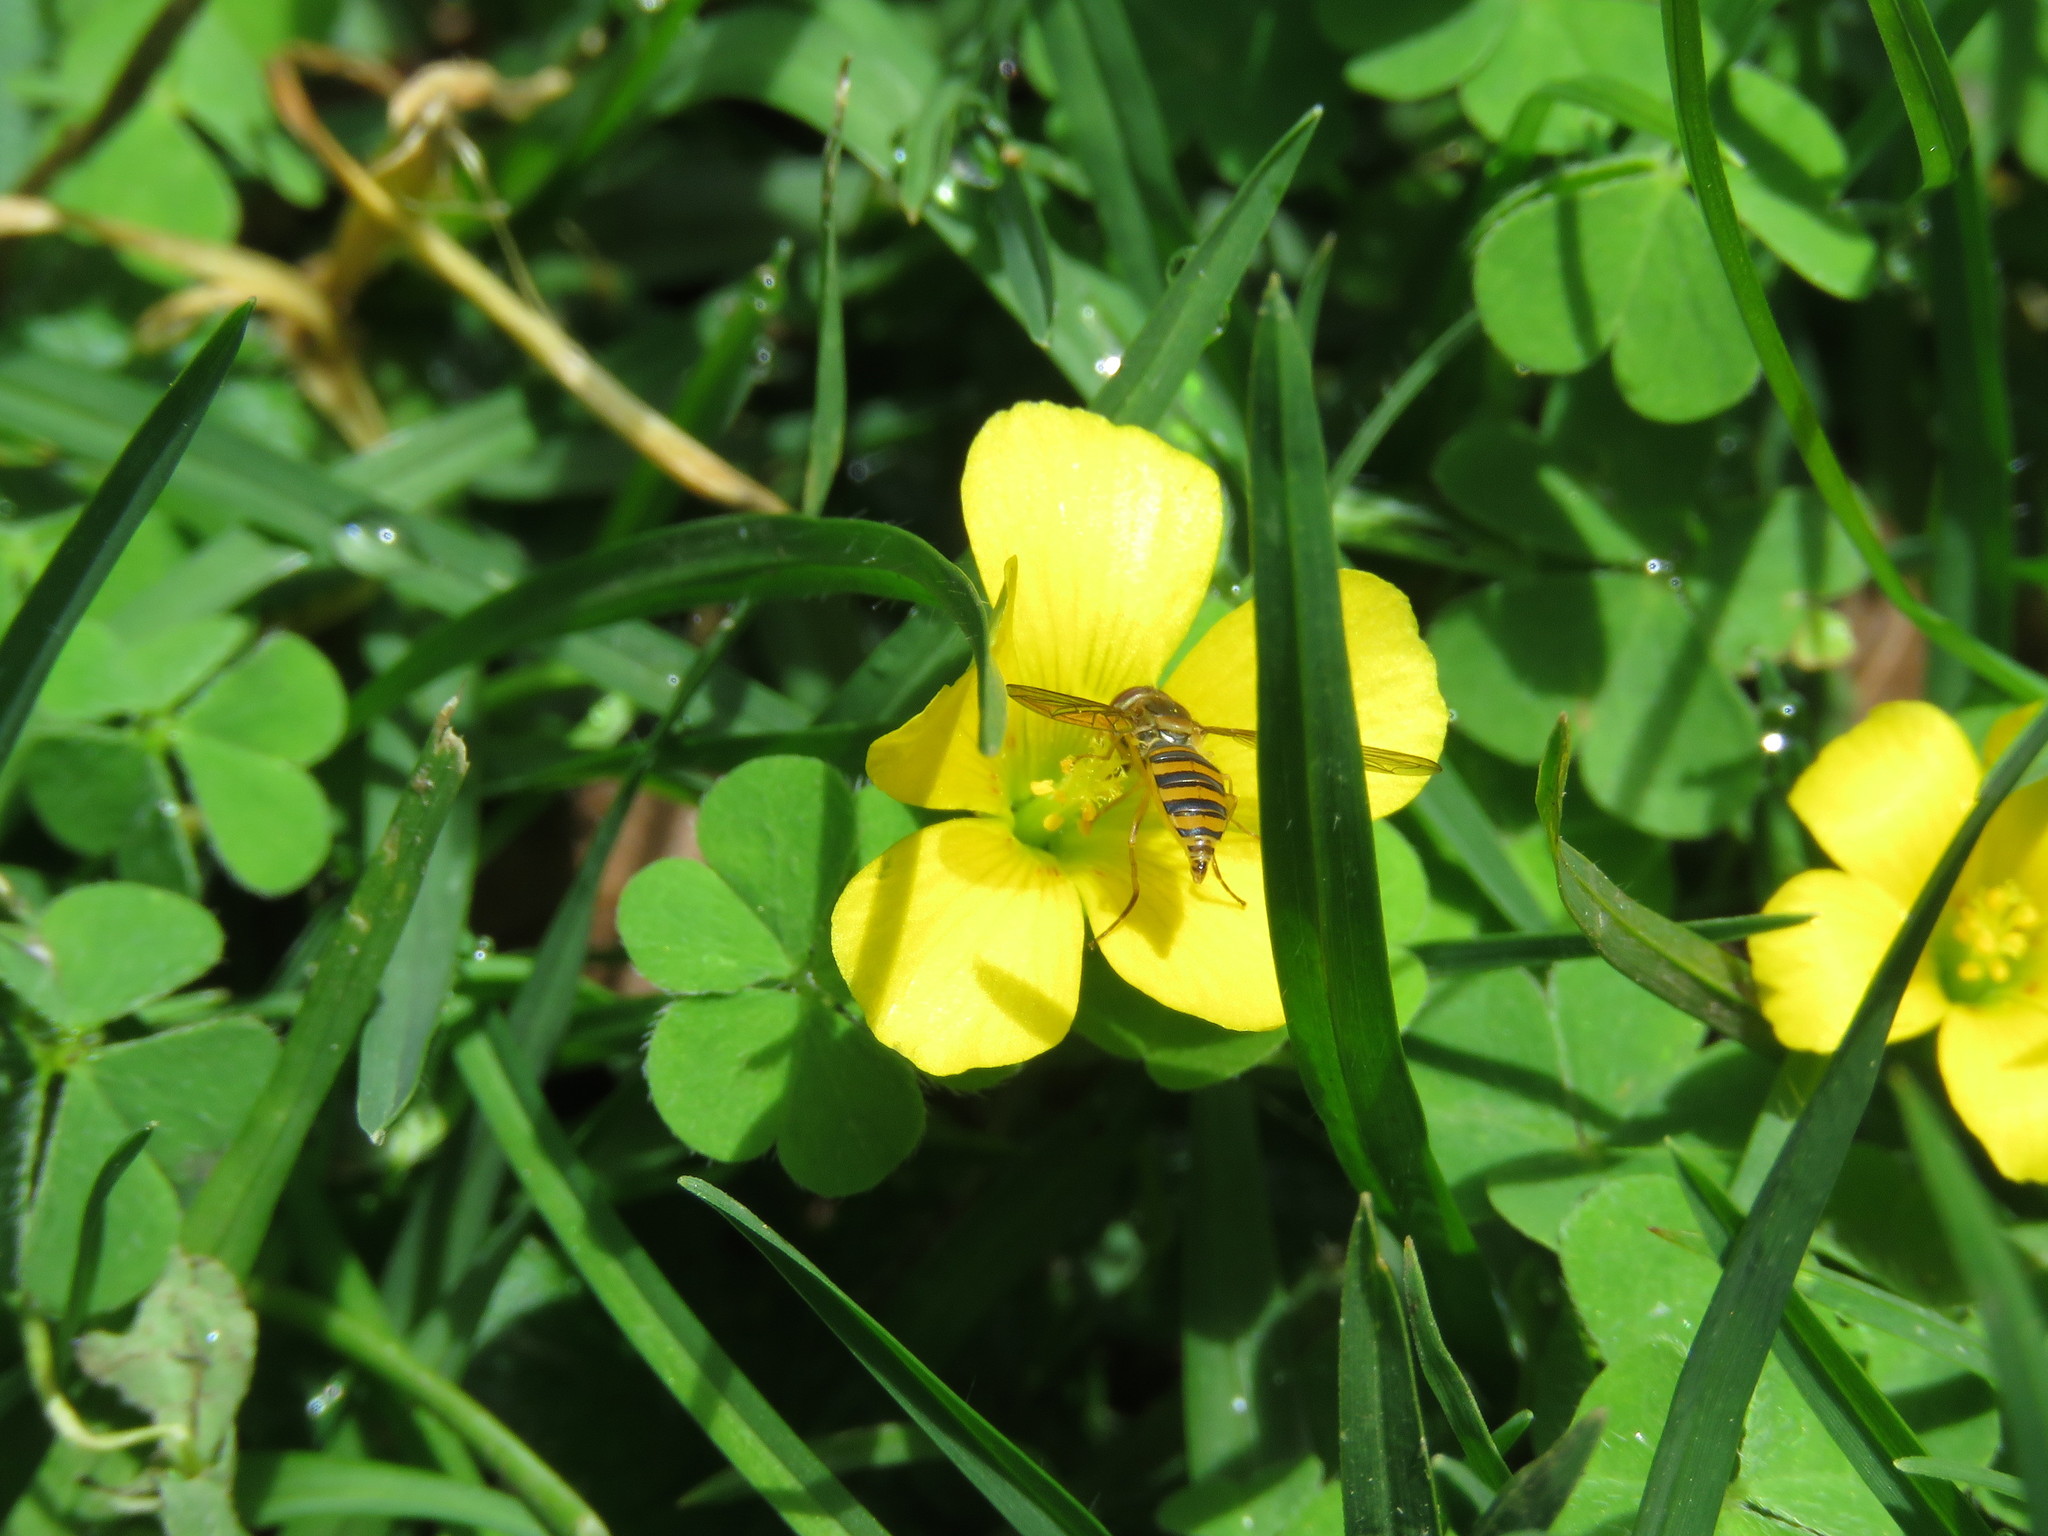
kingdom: Plantae
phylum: Tracheophyta
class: Magnoliopsida
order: Oxalidales
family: Oxalidaceae
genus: Oxalis
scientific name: Oxalis corniculata
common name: Procumbent yellow-sorrel
